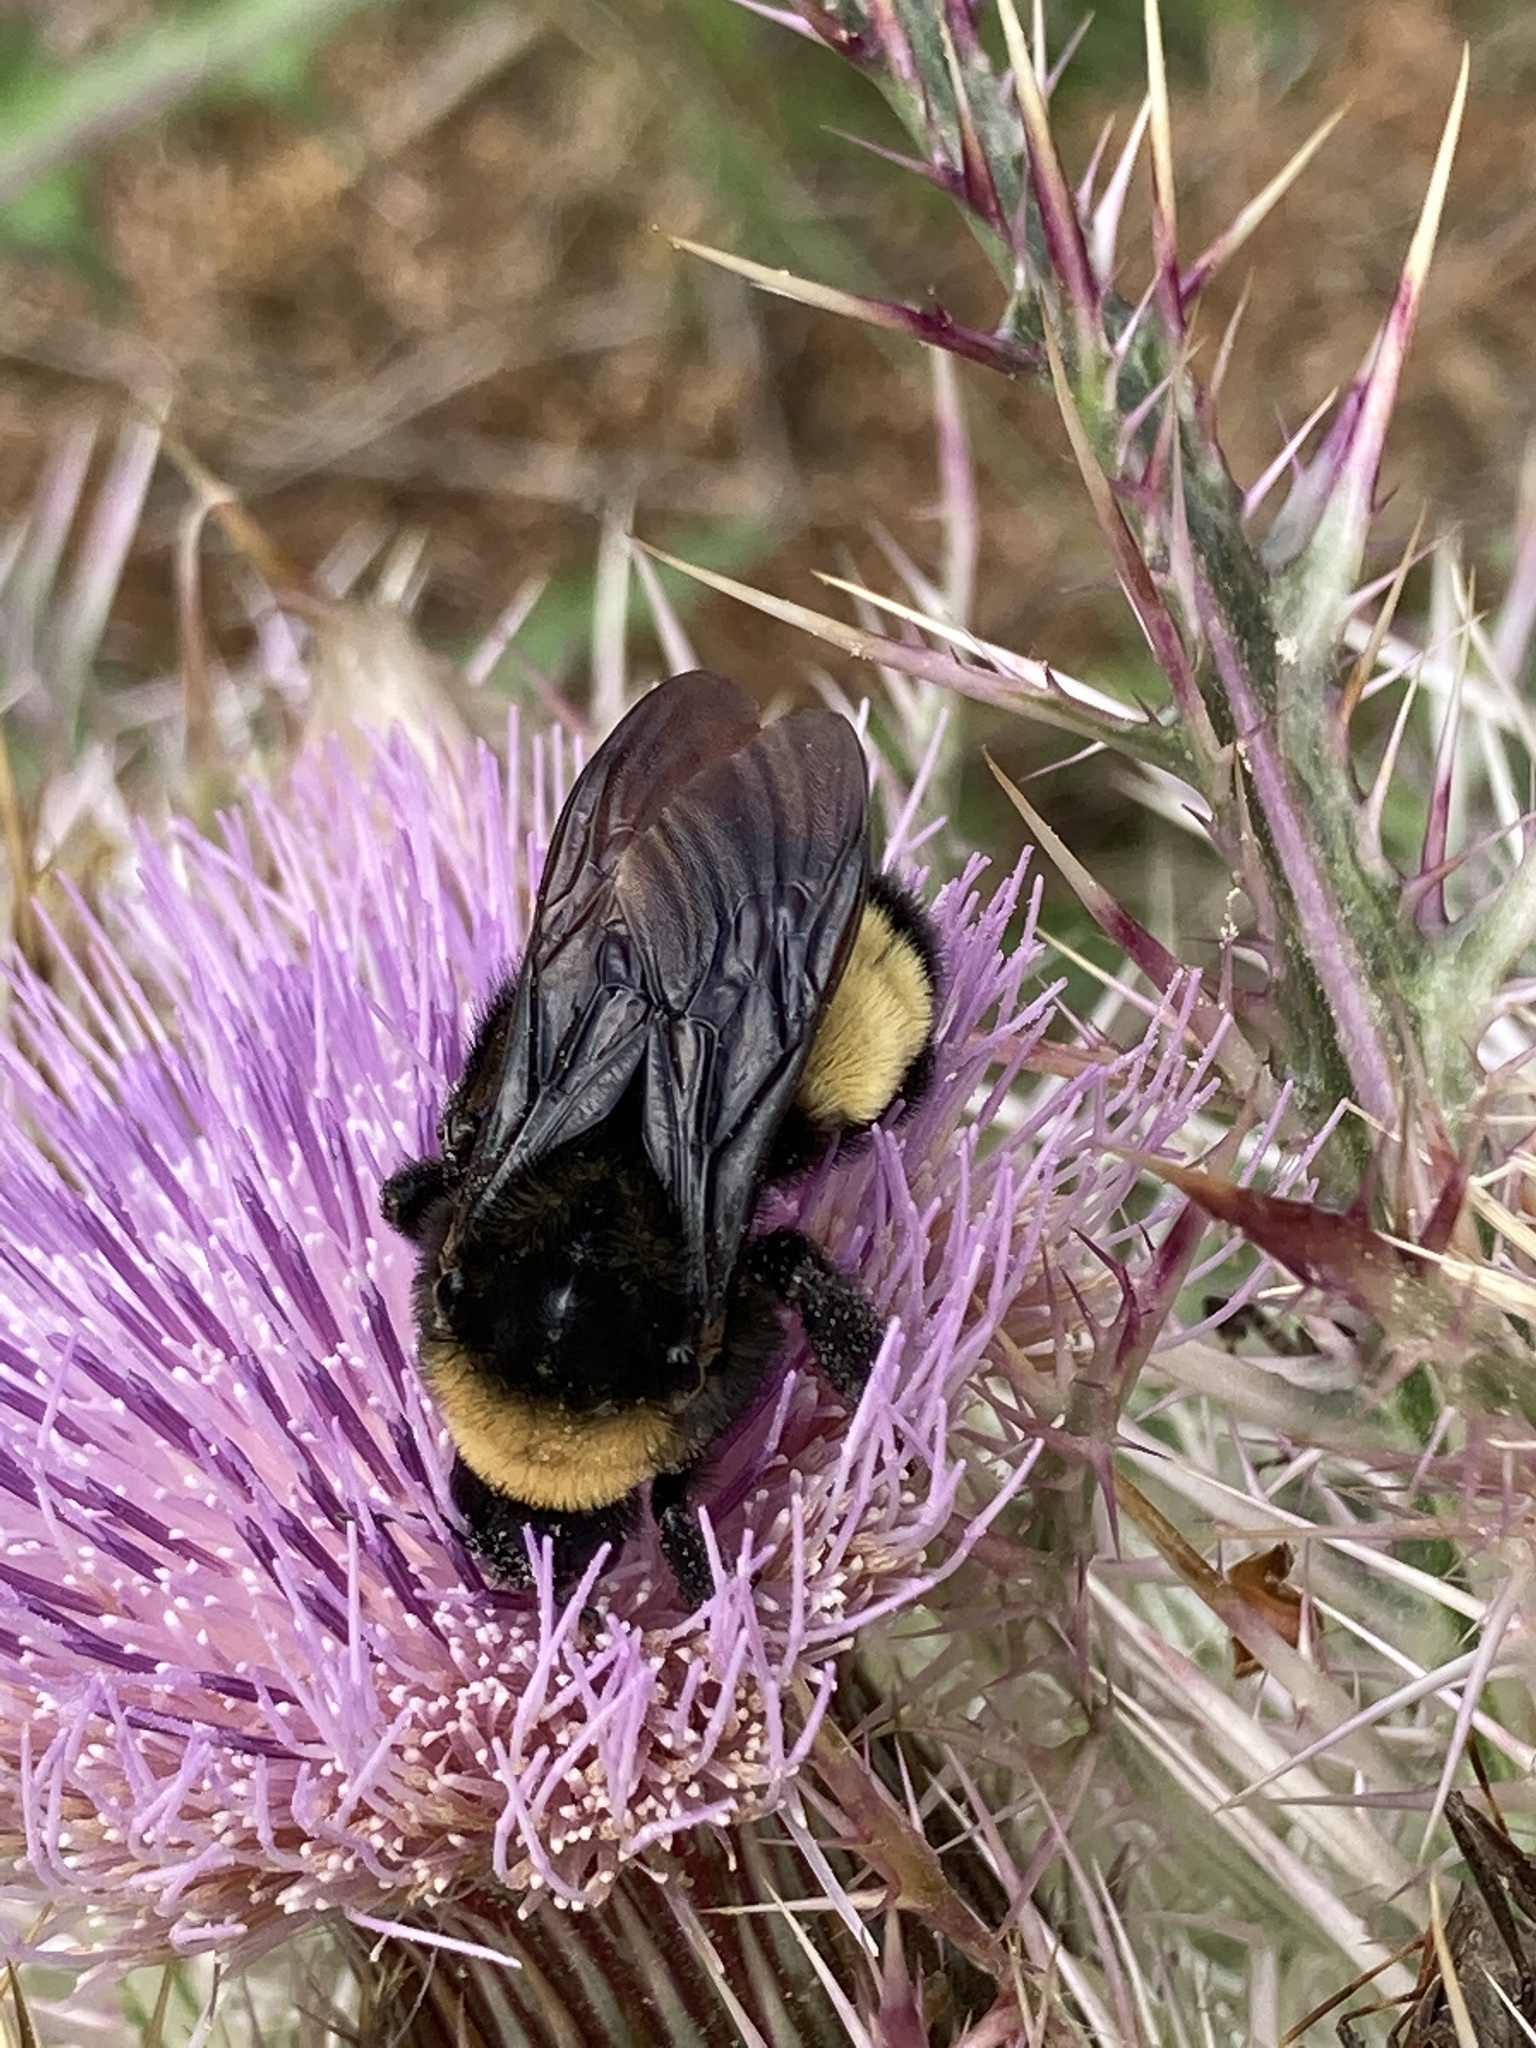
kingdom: Animalia
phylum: Arthropoda
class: Insecta
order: Hymenoptera
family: Apidae
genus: Bombus
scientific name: Bombus pensylvanicus
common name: Bumble bee
